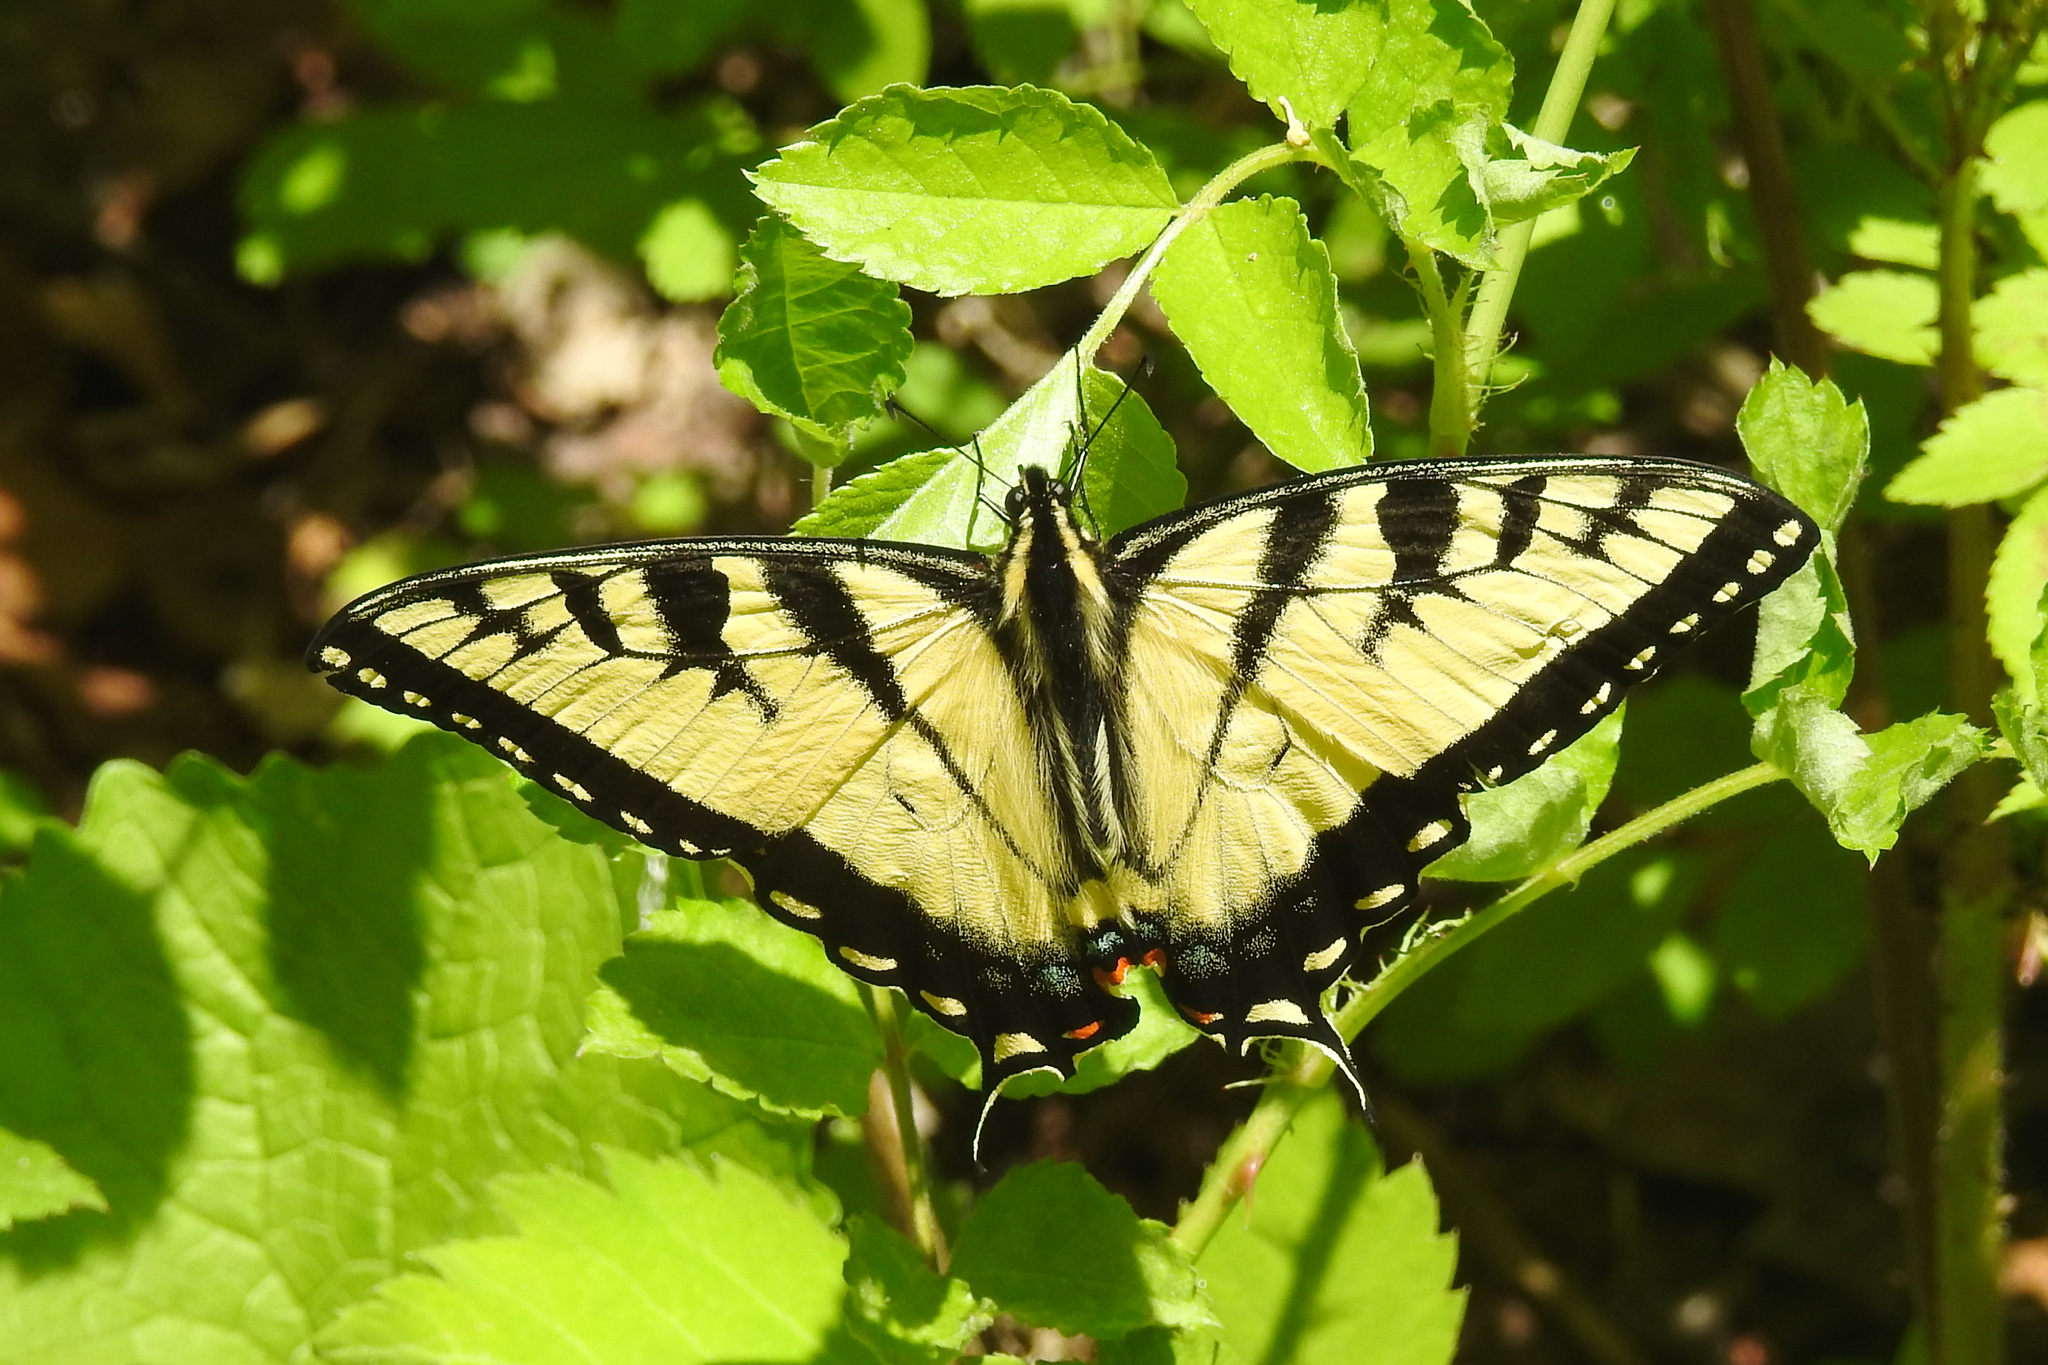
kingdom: Animalia
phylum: Arthropoda
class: Insecta
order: Lepidoptera
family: Papilionidae
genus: Papilio
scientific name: Papilio glaucus
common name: Tiger swallowtail
